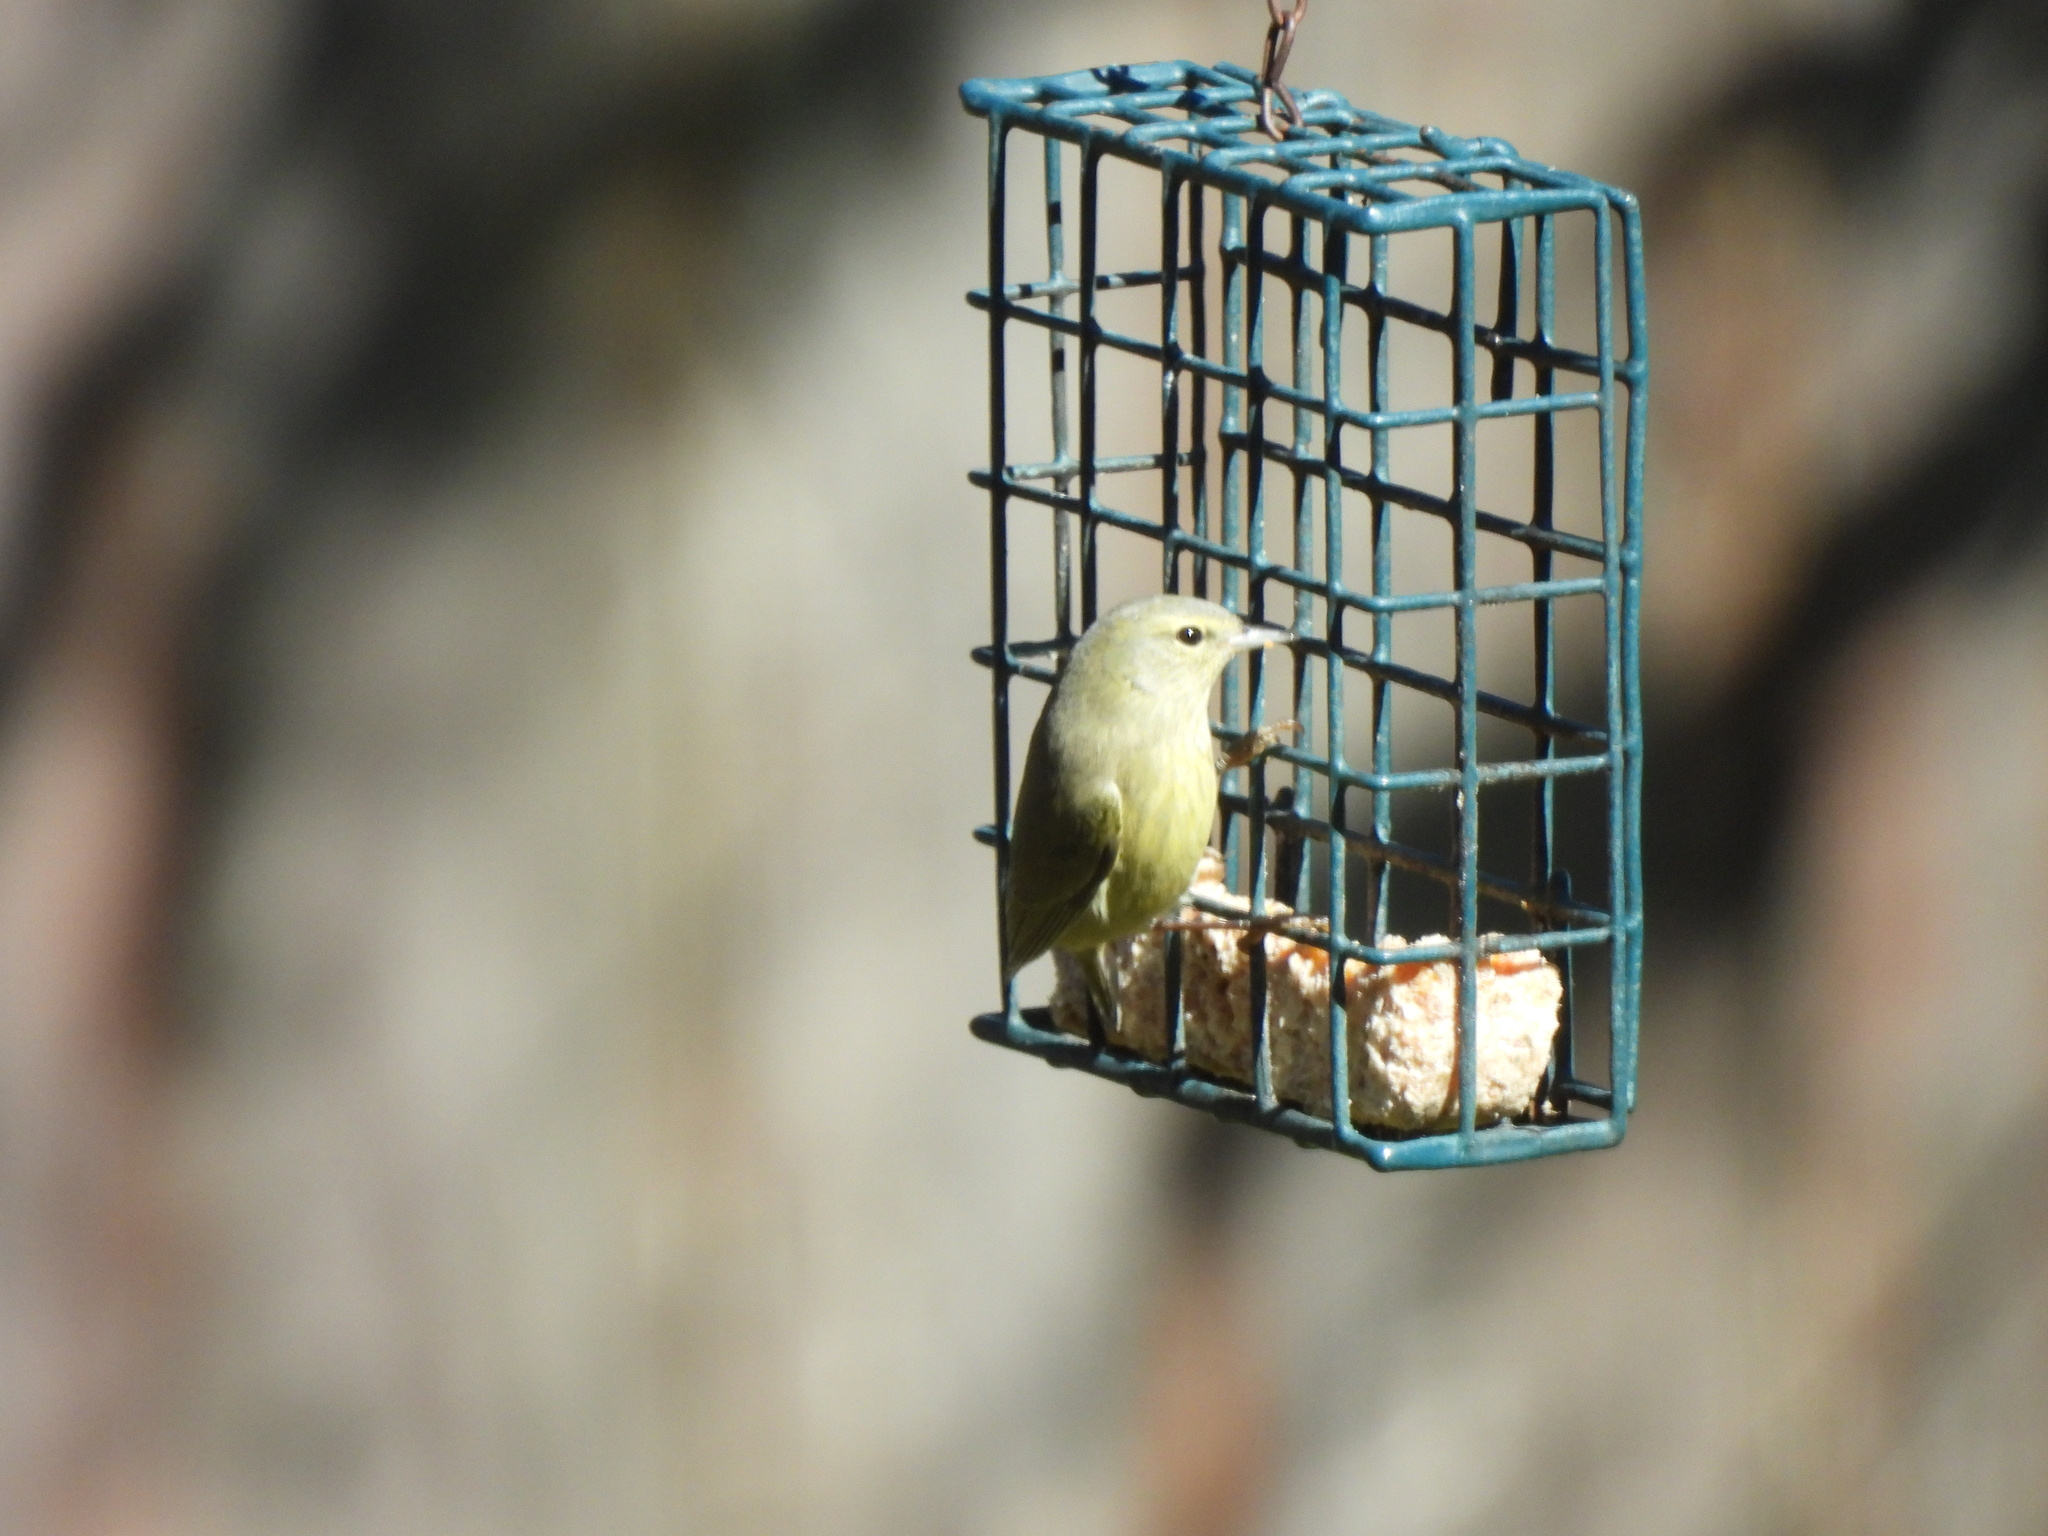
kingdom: Animalia
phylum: Chordata
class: Aves
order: Passeriformes
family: Parulidae
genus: Leiothlypis
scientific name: Leiothlypis celata
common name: Orange-crowned warbler
